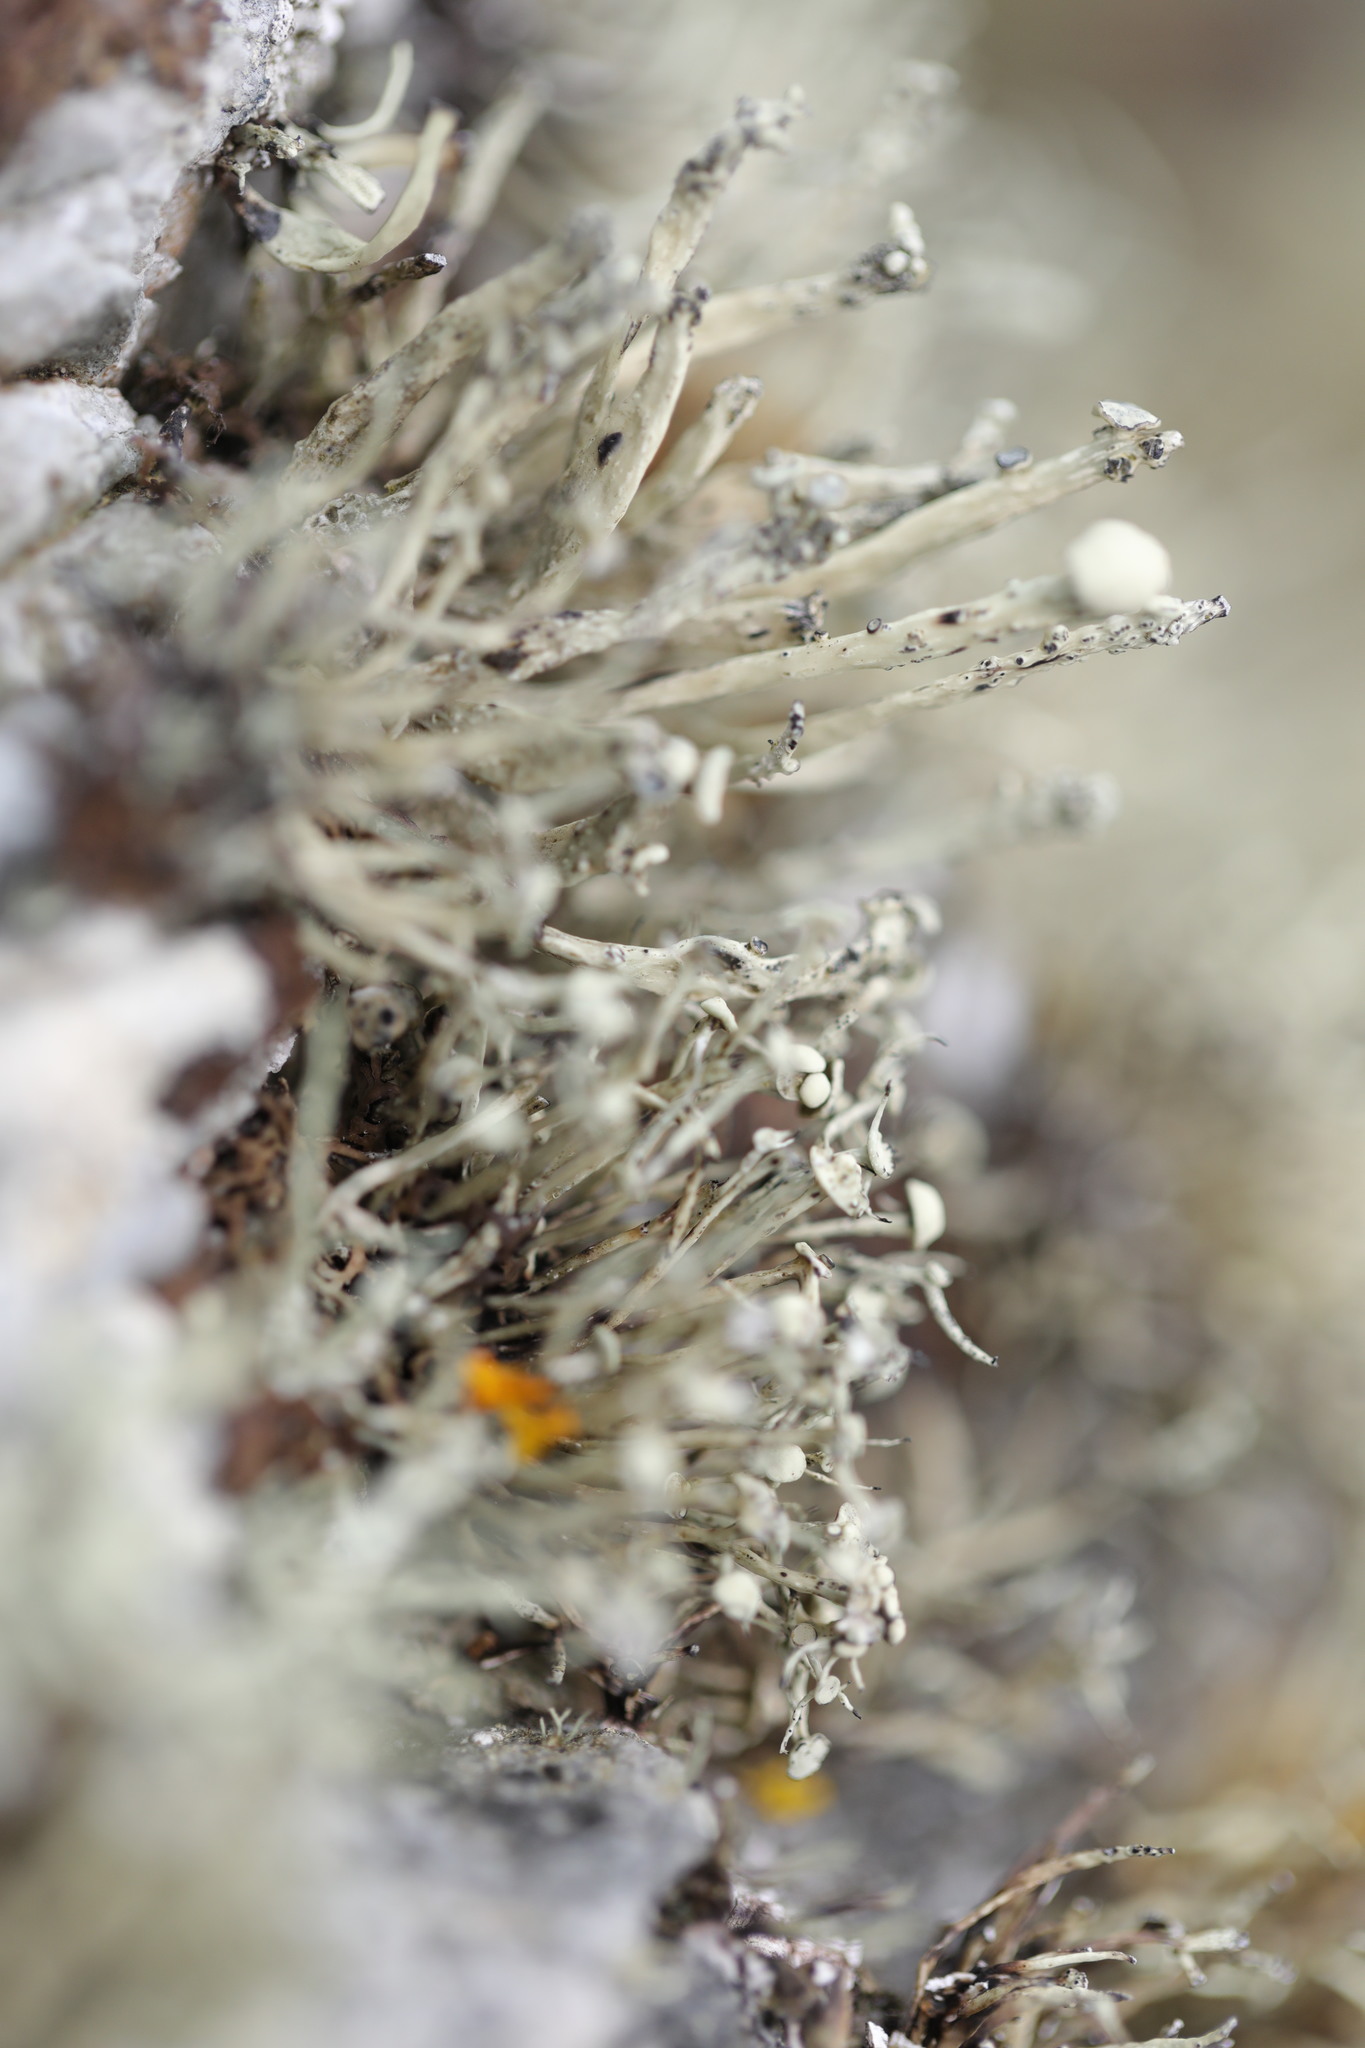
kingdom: Fungi
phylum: Ascomycota
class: Lecanoromycetes
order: Lecanorales
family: Ramalinaceae
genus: Ramalina
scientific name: Ramalina cuspidata
